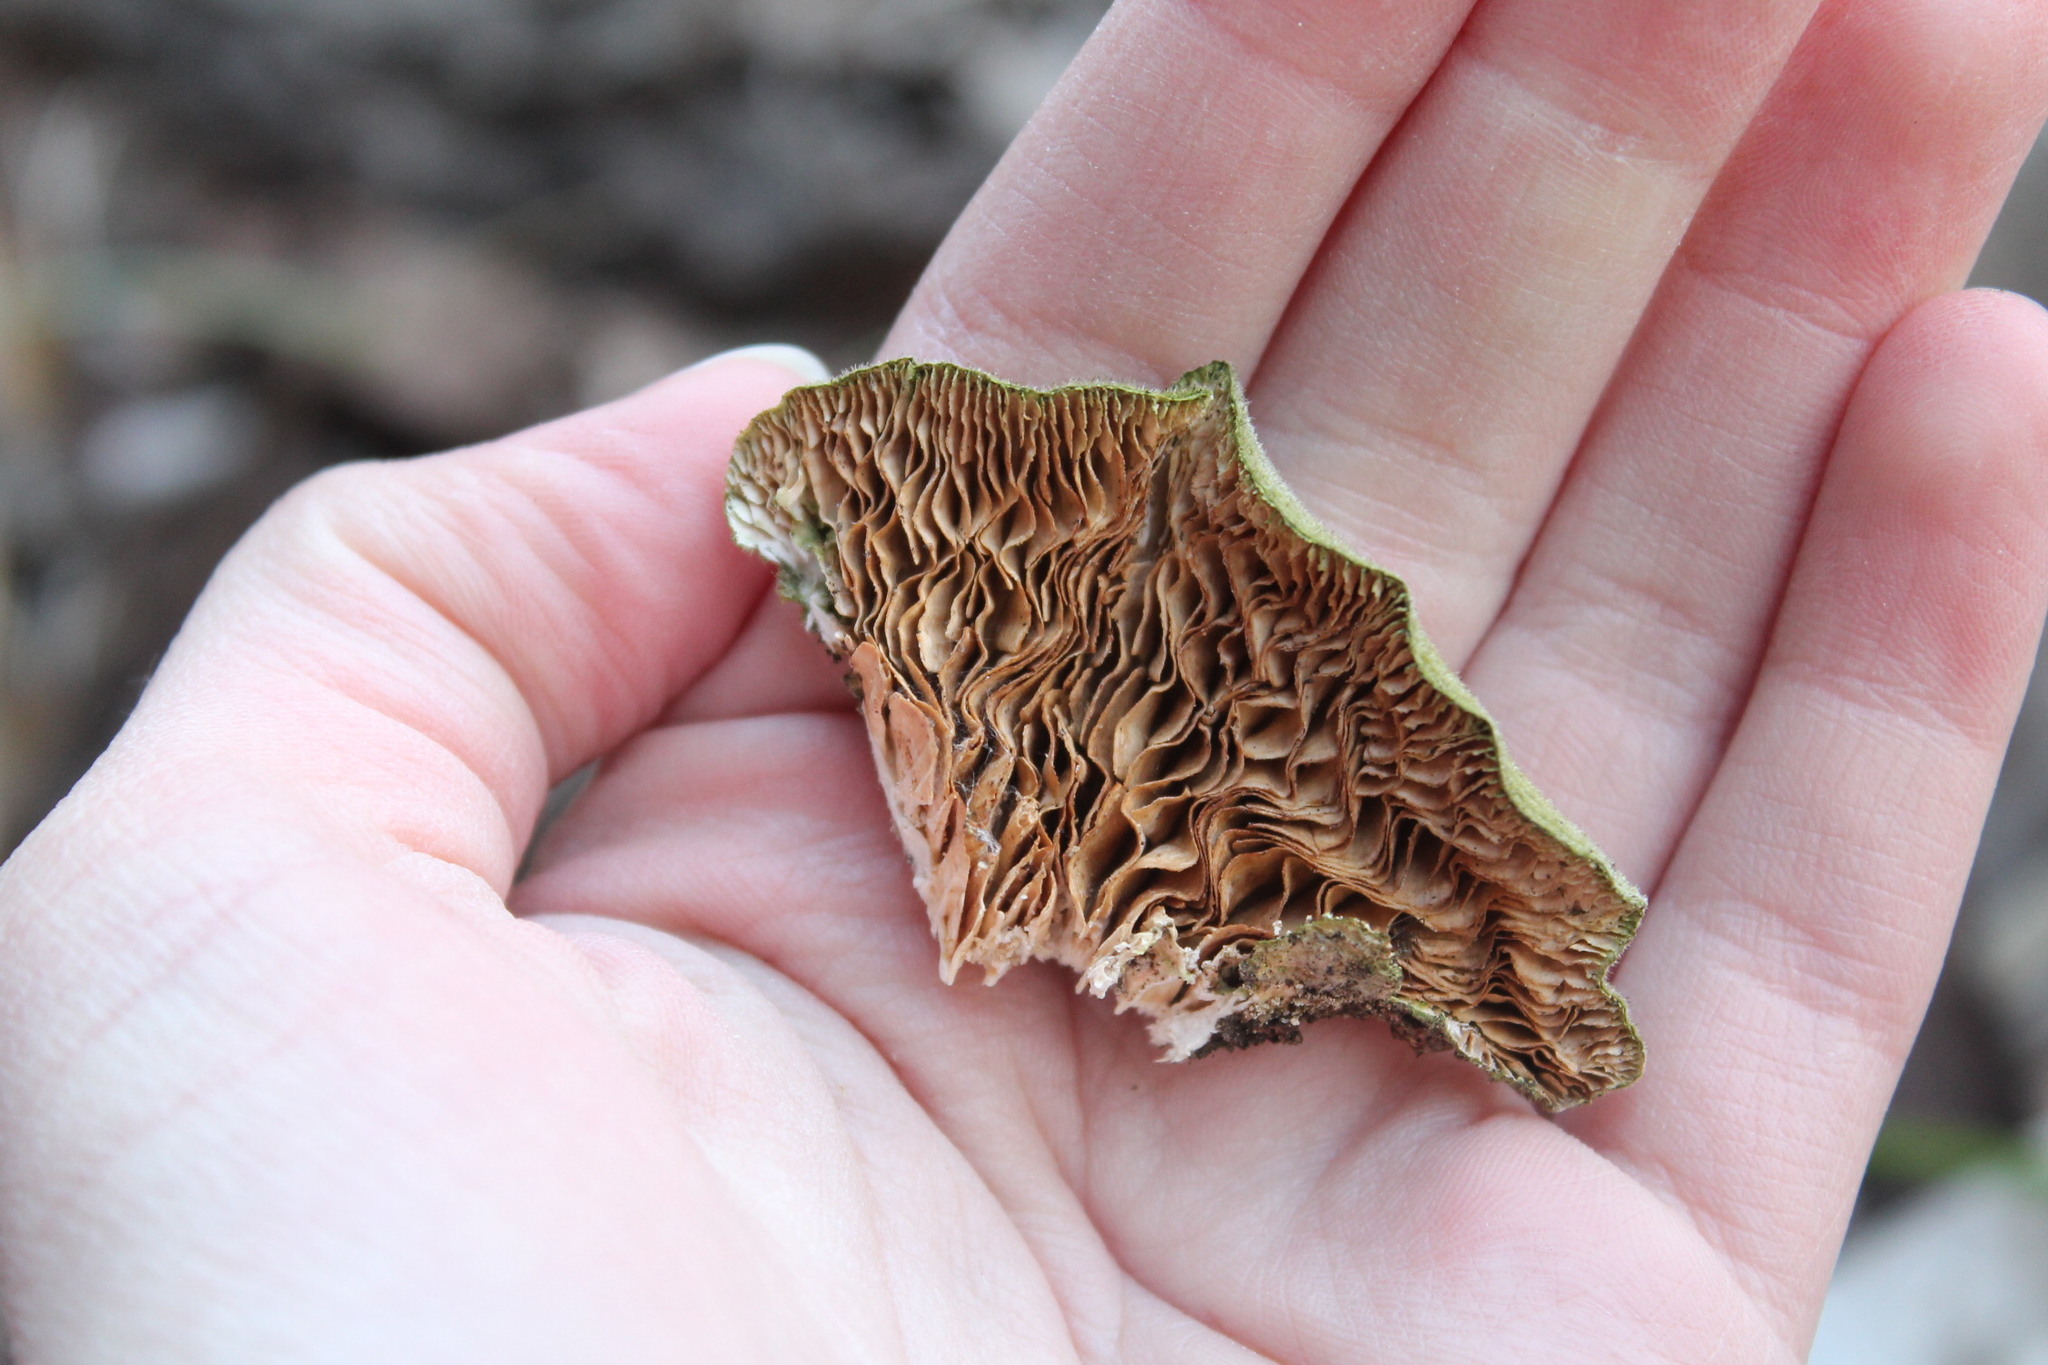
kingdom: Fungi
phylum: Basidiomycota
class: Agaricomycetes
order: Polyporales
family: Polyporaceae
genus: Lenzites
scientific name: Lenzites betulinus
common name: Birch mazegill
